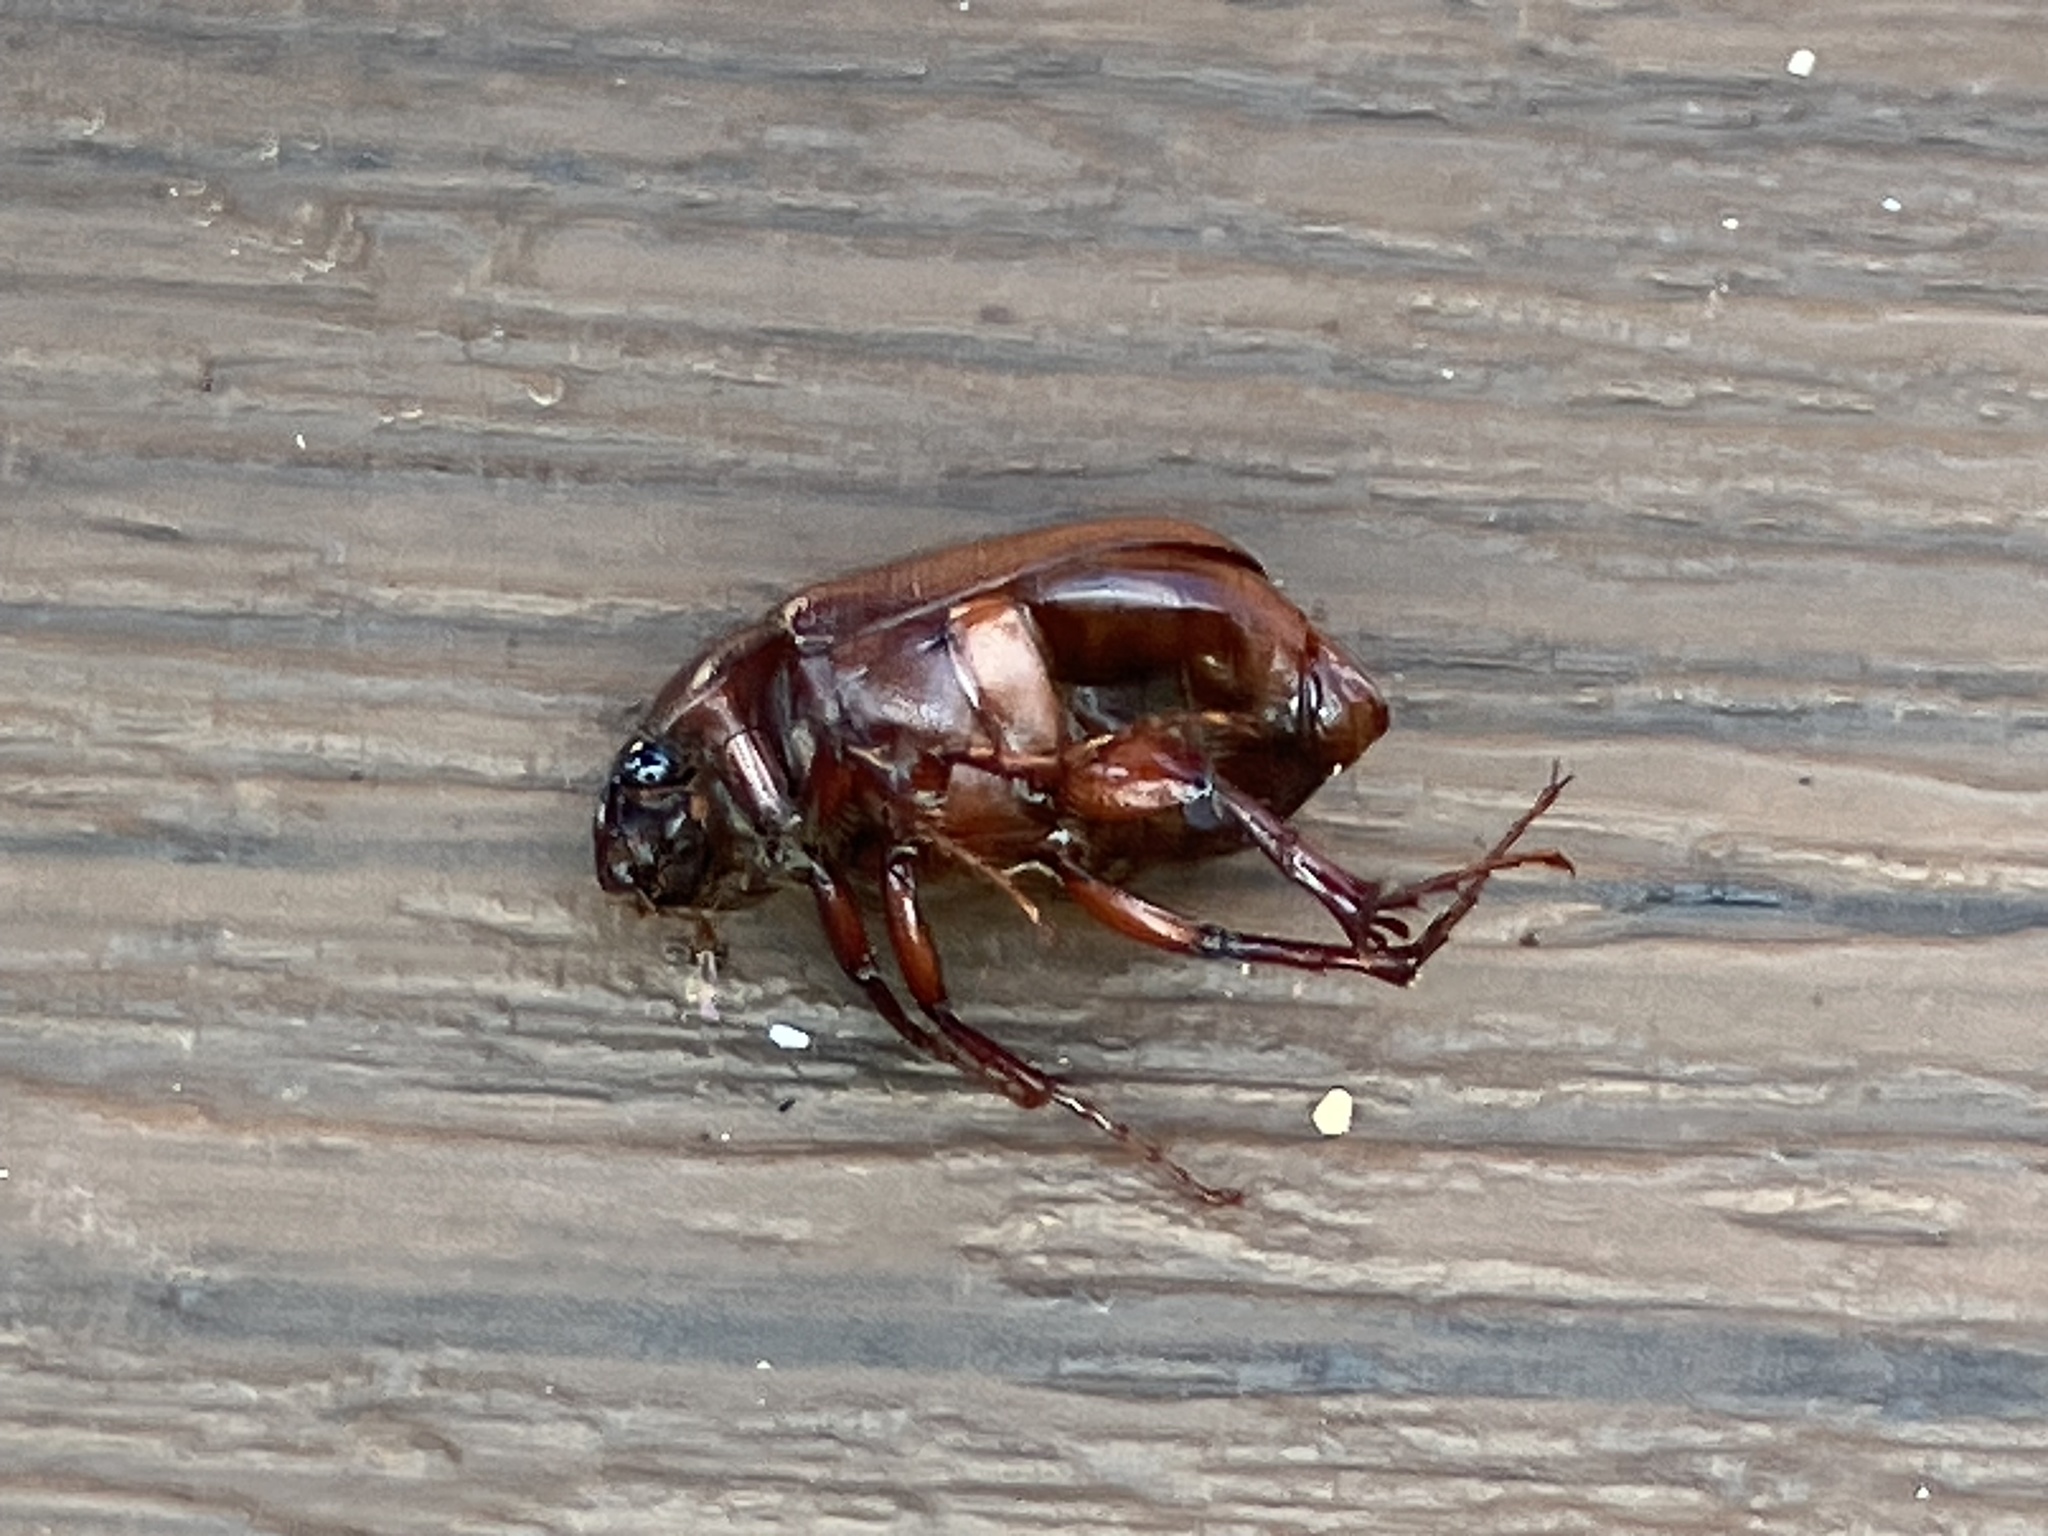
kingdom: Animalia
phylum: Arthropoda
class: Insecta
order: Coleoptera
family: Scarabaeidae
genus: Phyllophaga
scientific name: Phyllophaga
